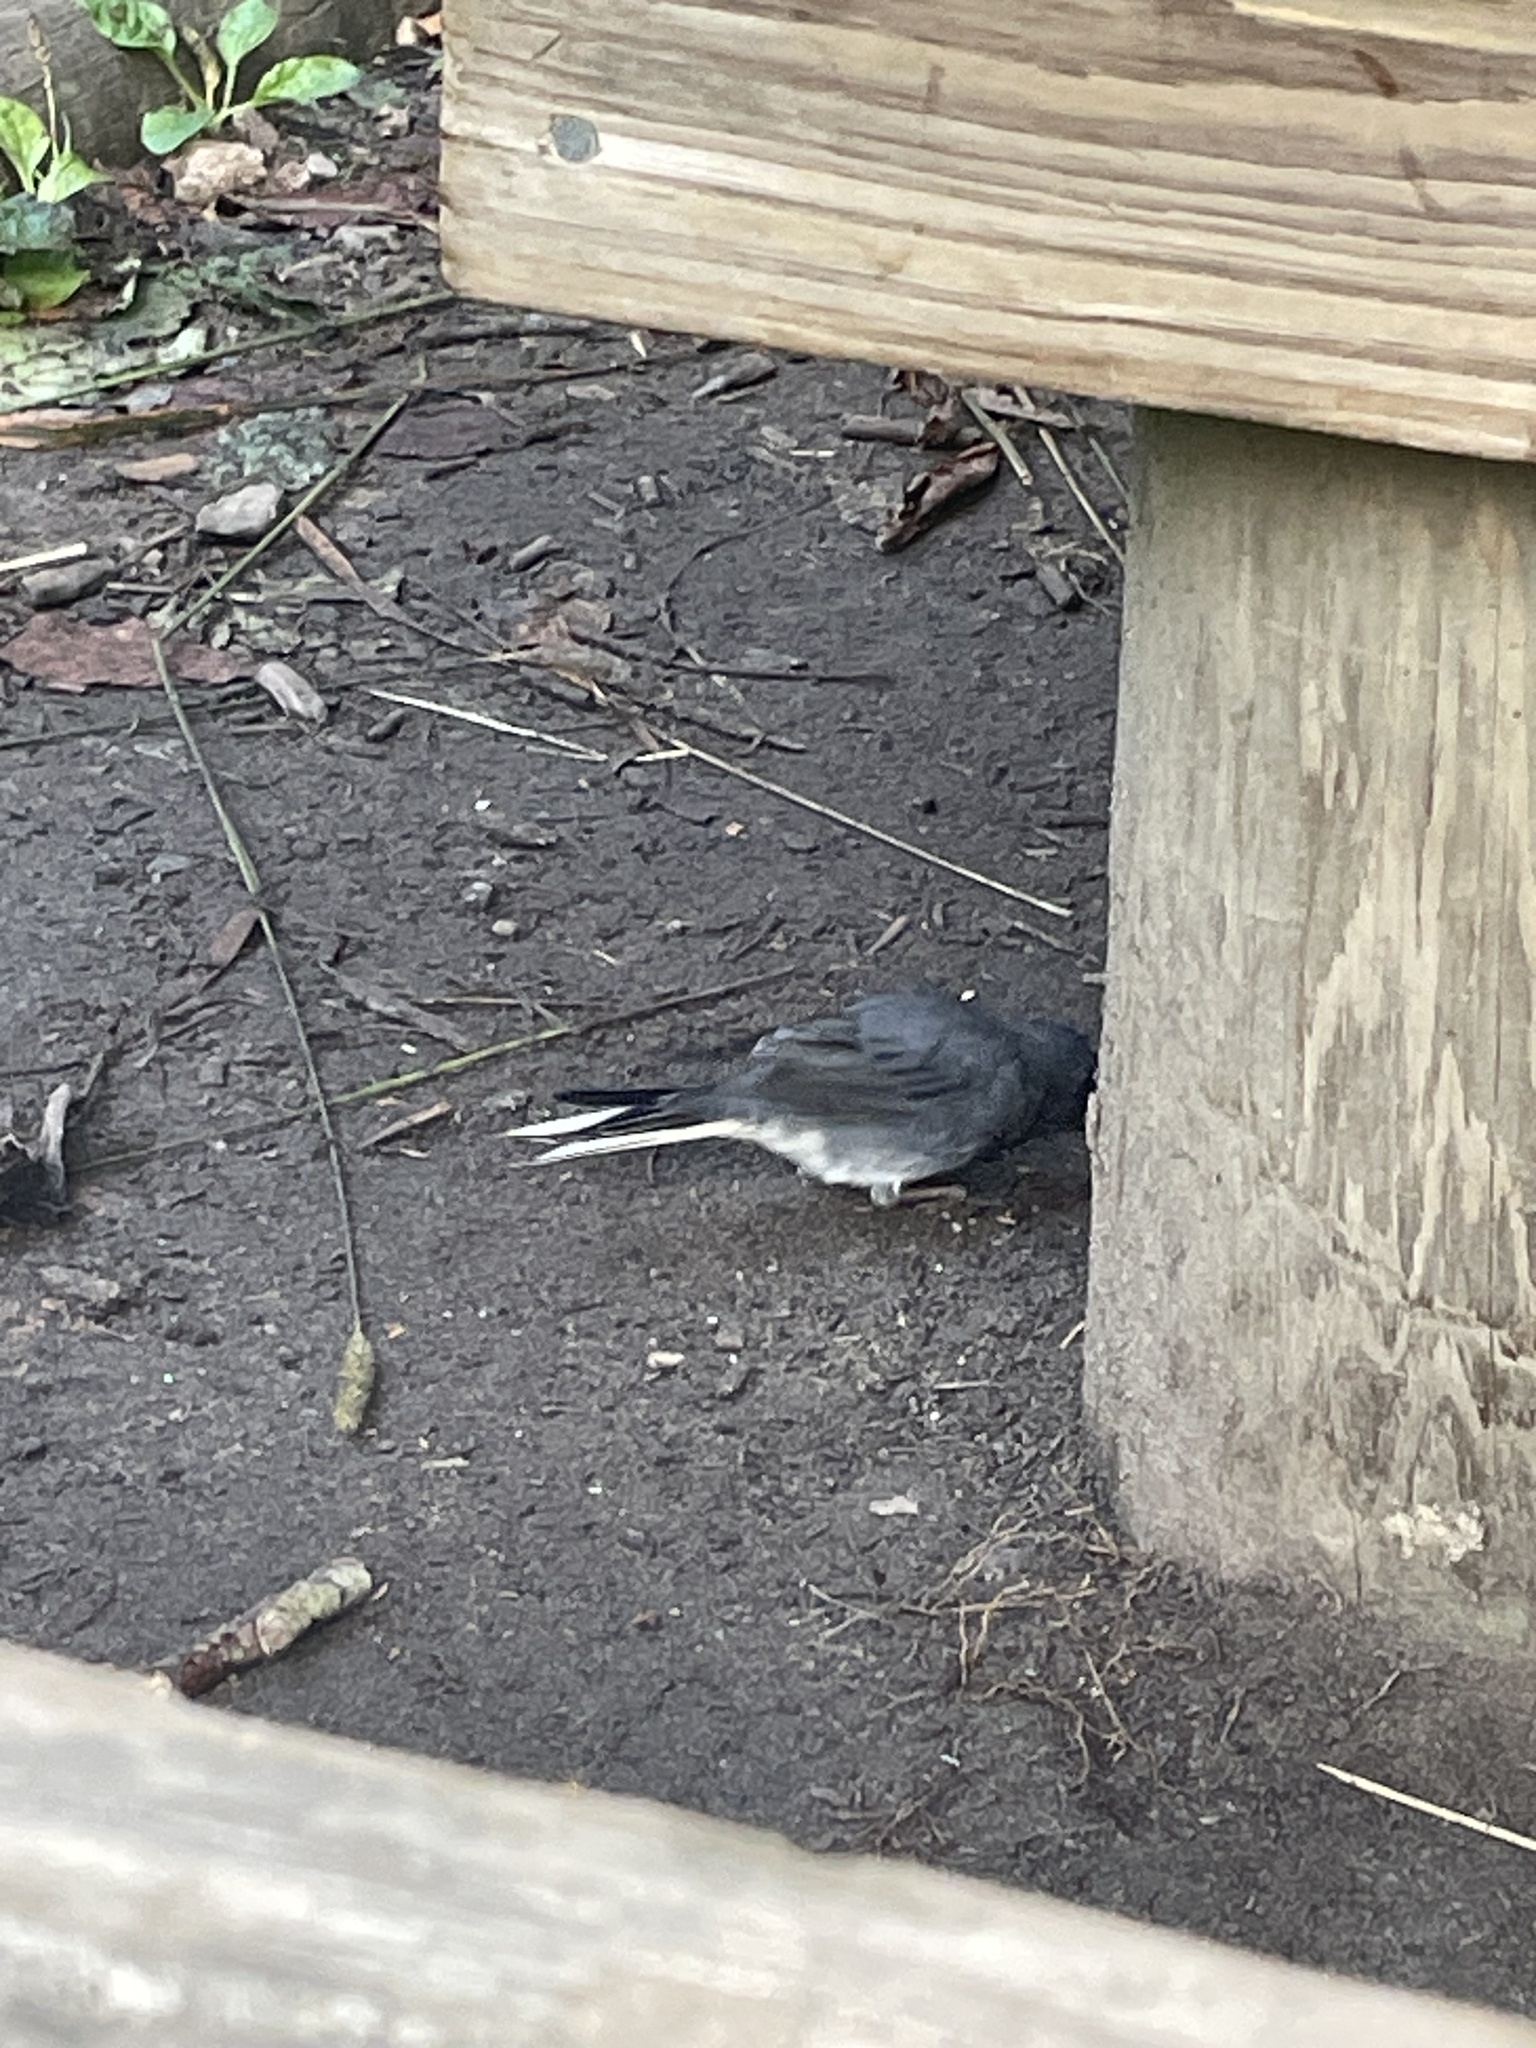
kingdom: Animalia
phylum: Chordata
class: Aves
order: Passeriformes
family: Passerellidae
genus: Junco
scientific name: Junco hyemalis
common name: Dark-eyed junco
